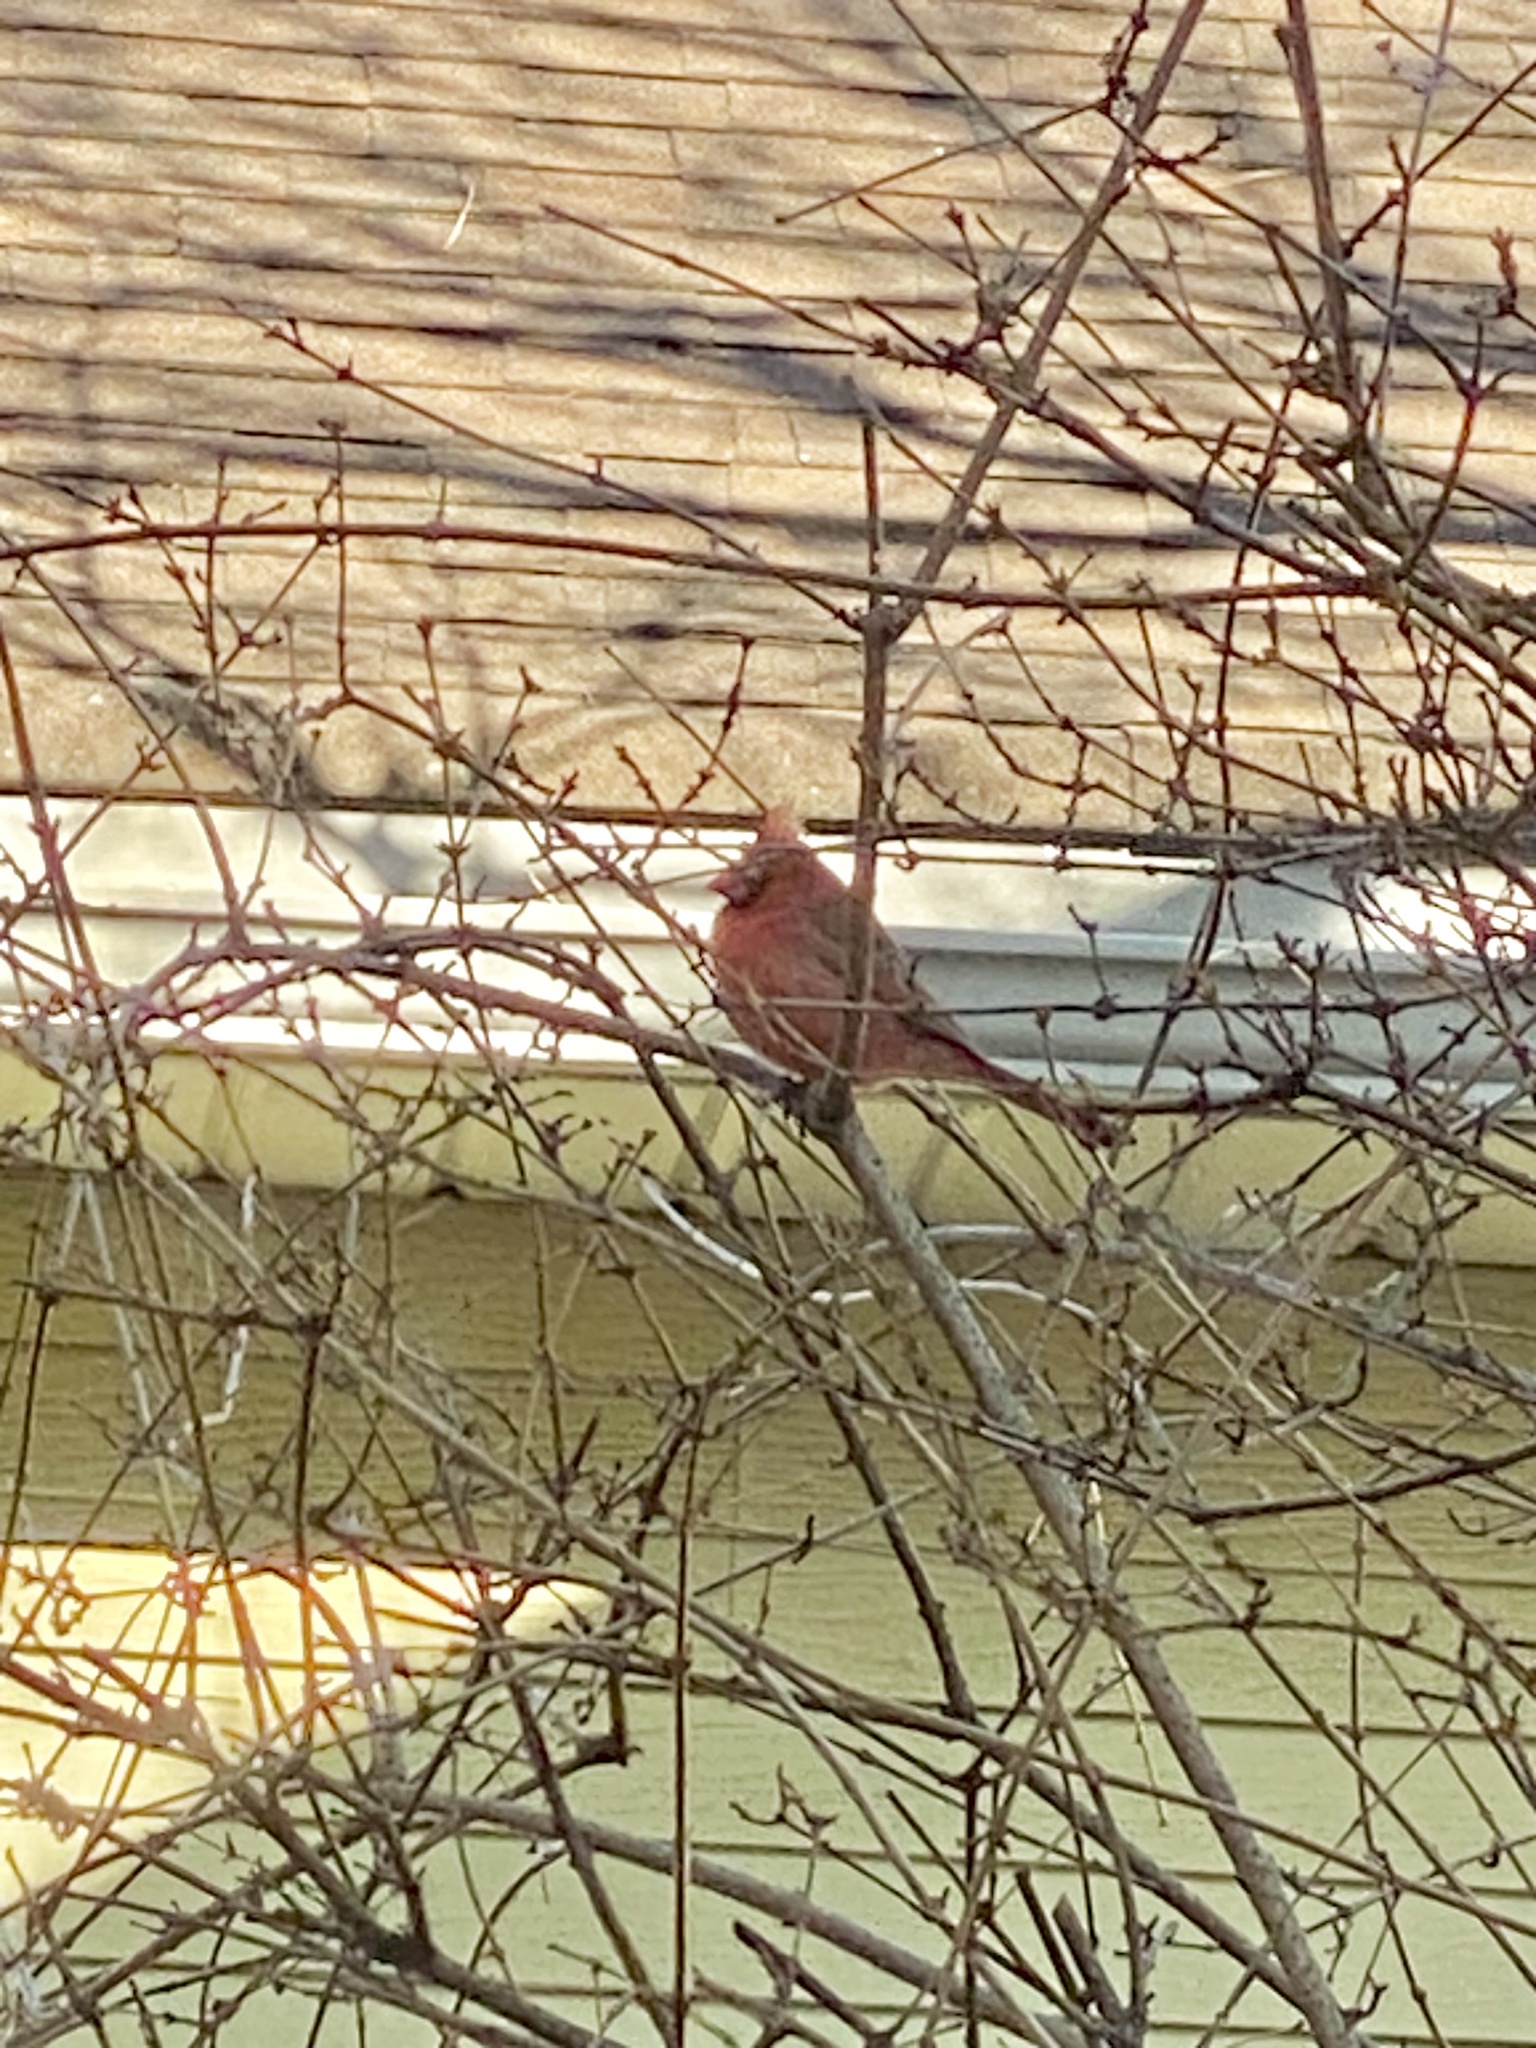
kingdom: Animalia
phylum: Chordata
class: Aves
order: Passeriformes
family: Cardinalidae
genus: Cardinalis
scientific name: Cardinalis cardinalis
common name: Northern cardinal
